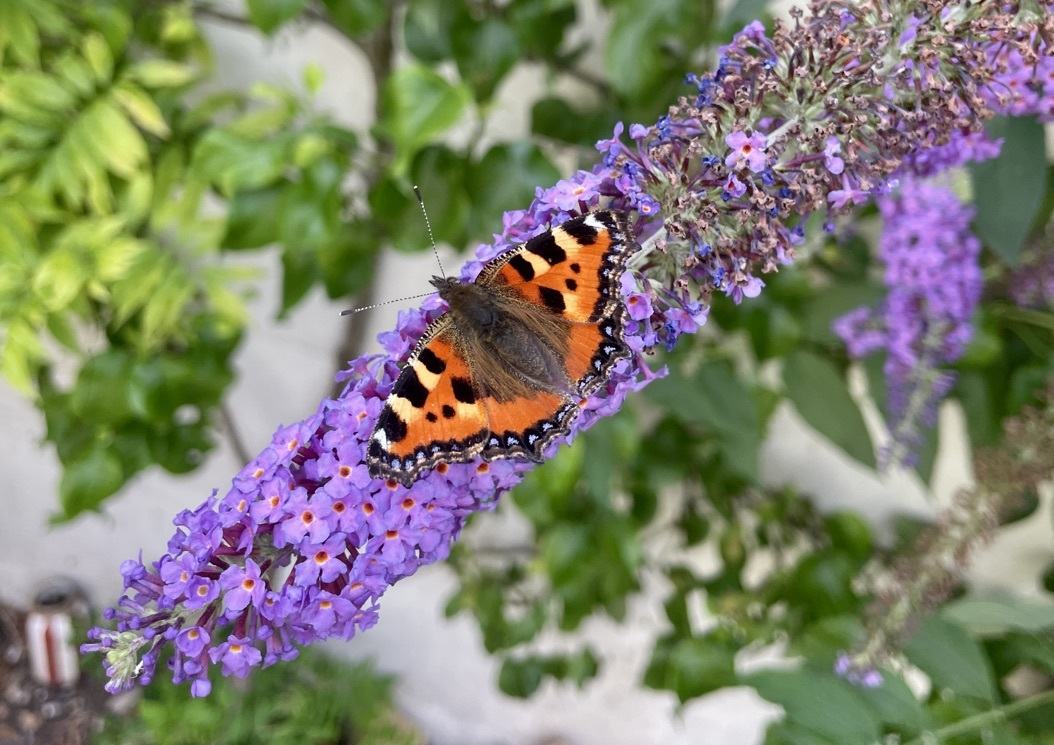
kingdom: Animalia
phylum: Arthropoda
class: Insecta
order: Lepidoptera
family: Nymphalidae
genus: Aglais
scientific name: Aglais urticae
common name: Small tortoiseshell
